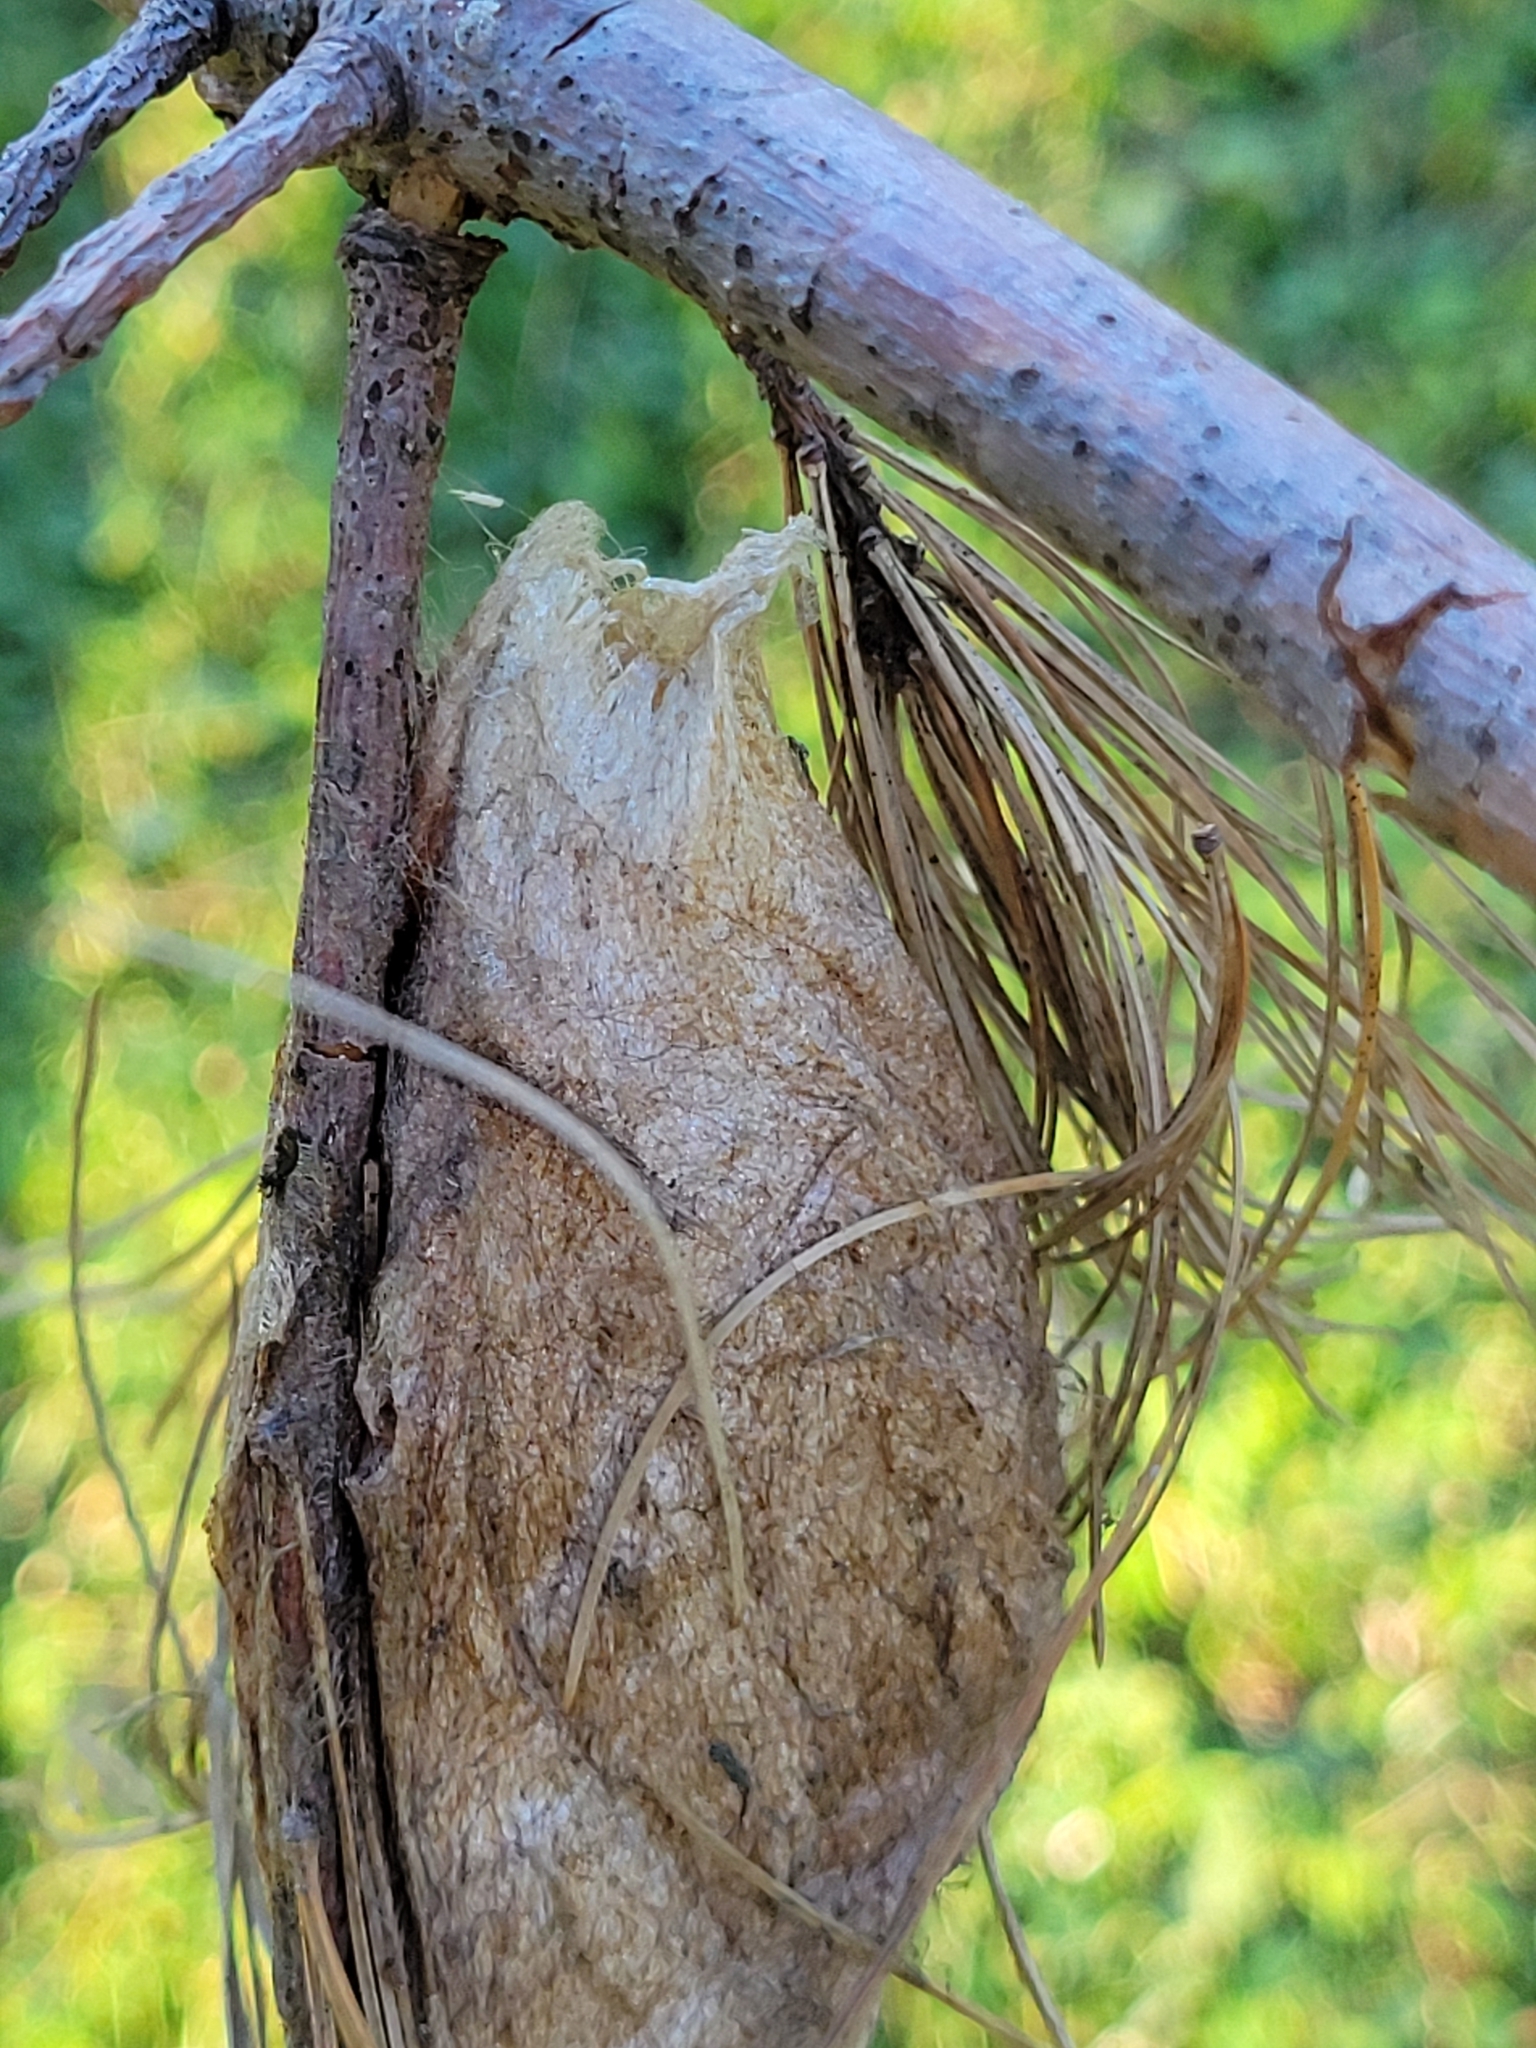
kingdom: Animalia
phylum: Arthropoda
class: Insecta
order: Lepidoptera
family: Saturniidae
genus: Hyalophora
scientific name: Hyalophora cecropia
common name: Cecropia silkmoth
